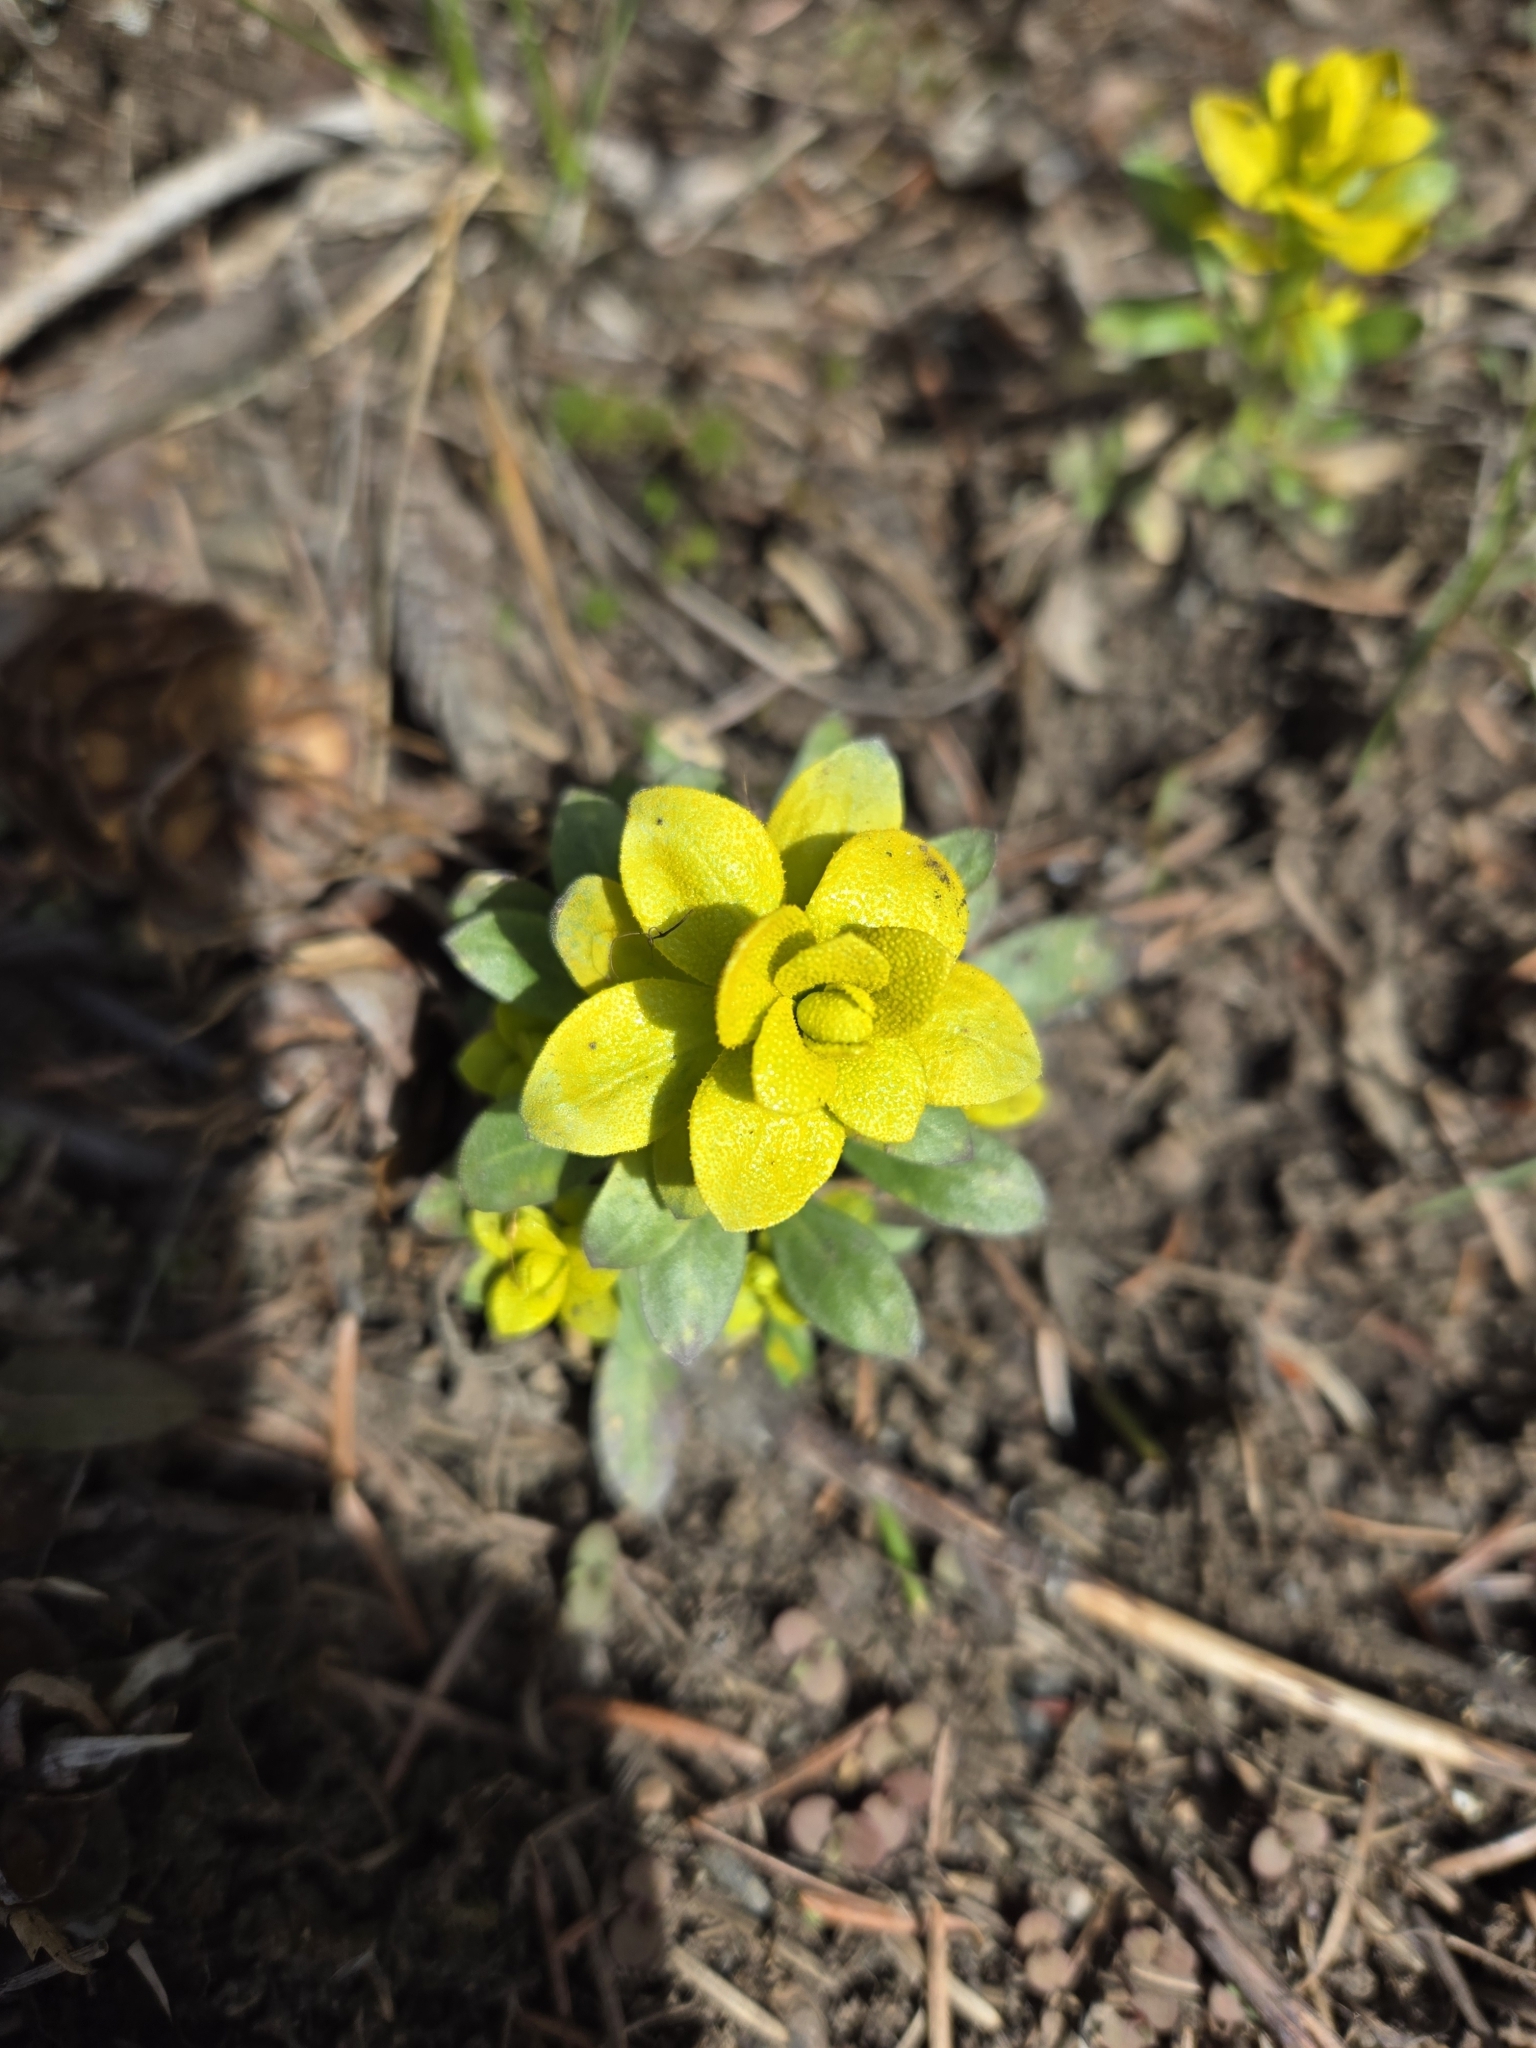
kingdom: Fungi
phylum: Basidiomycota
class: Pucciniomycetes
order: Pucciniales
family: Pucciniaceae
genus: Puccinia
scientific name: Puccinia monoica
